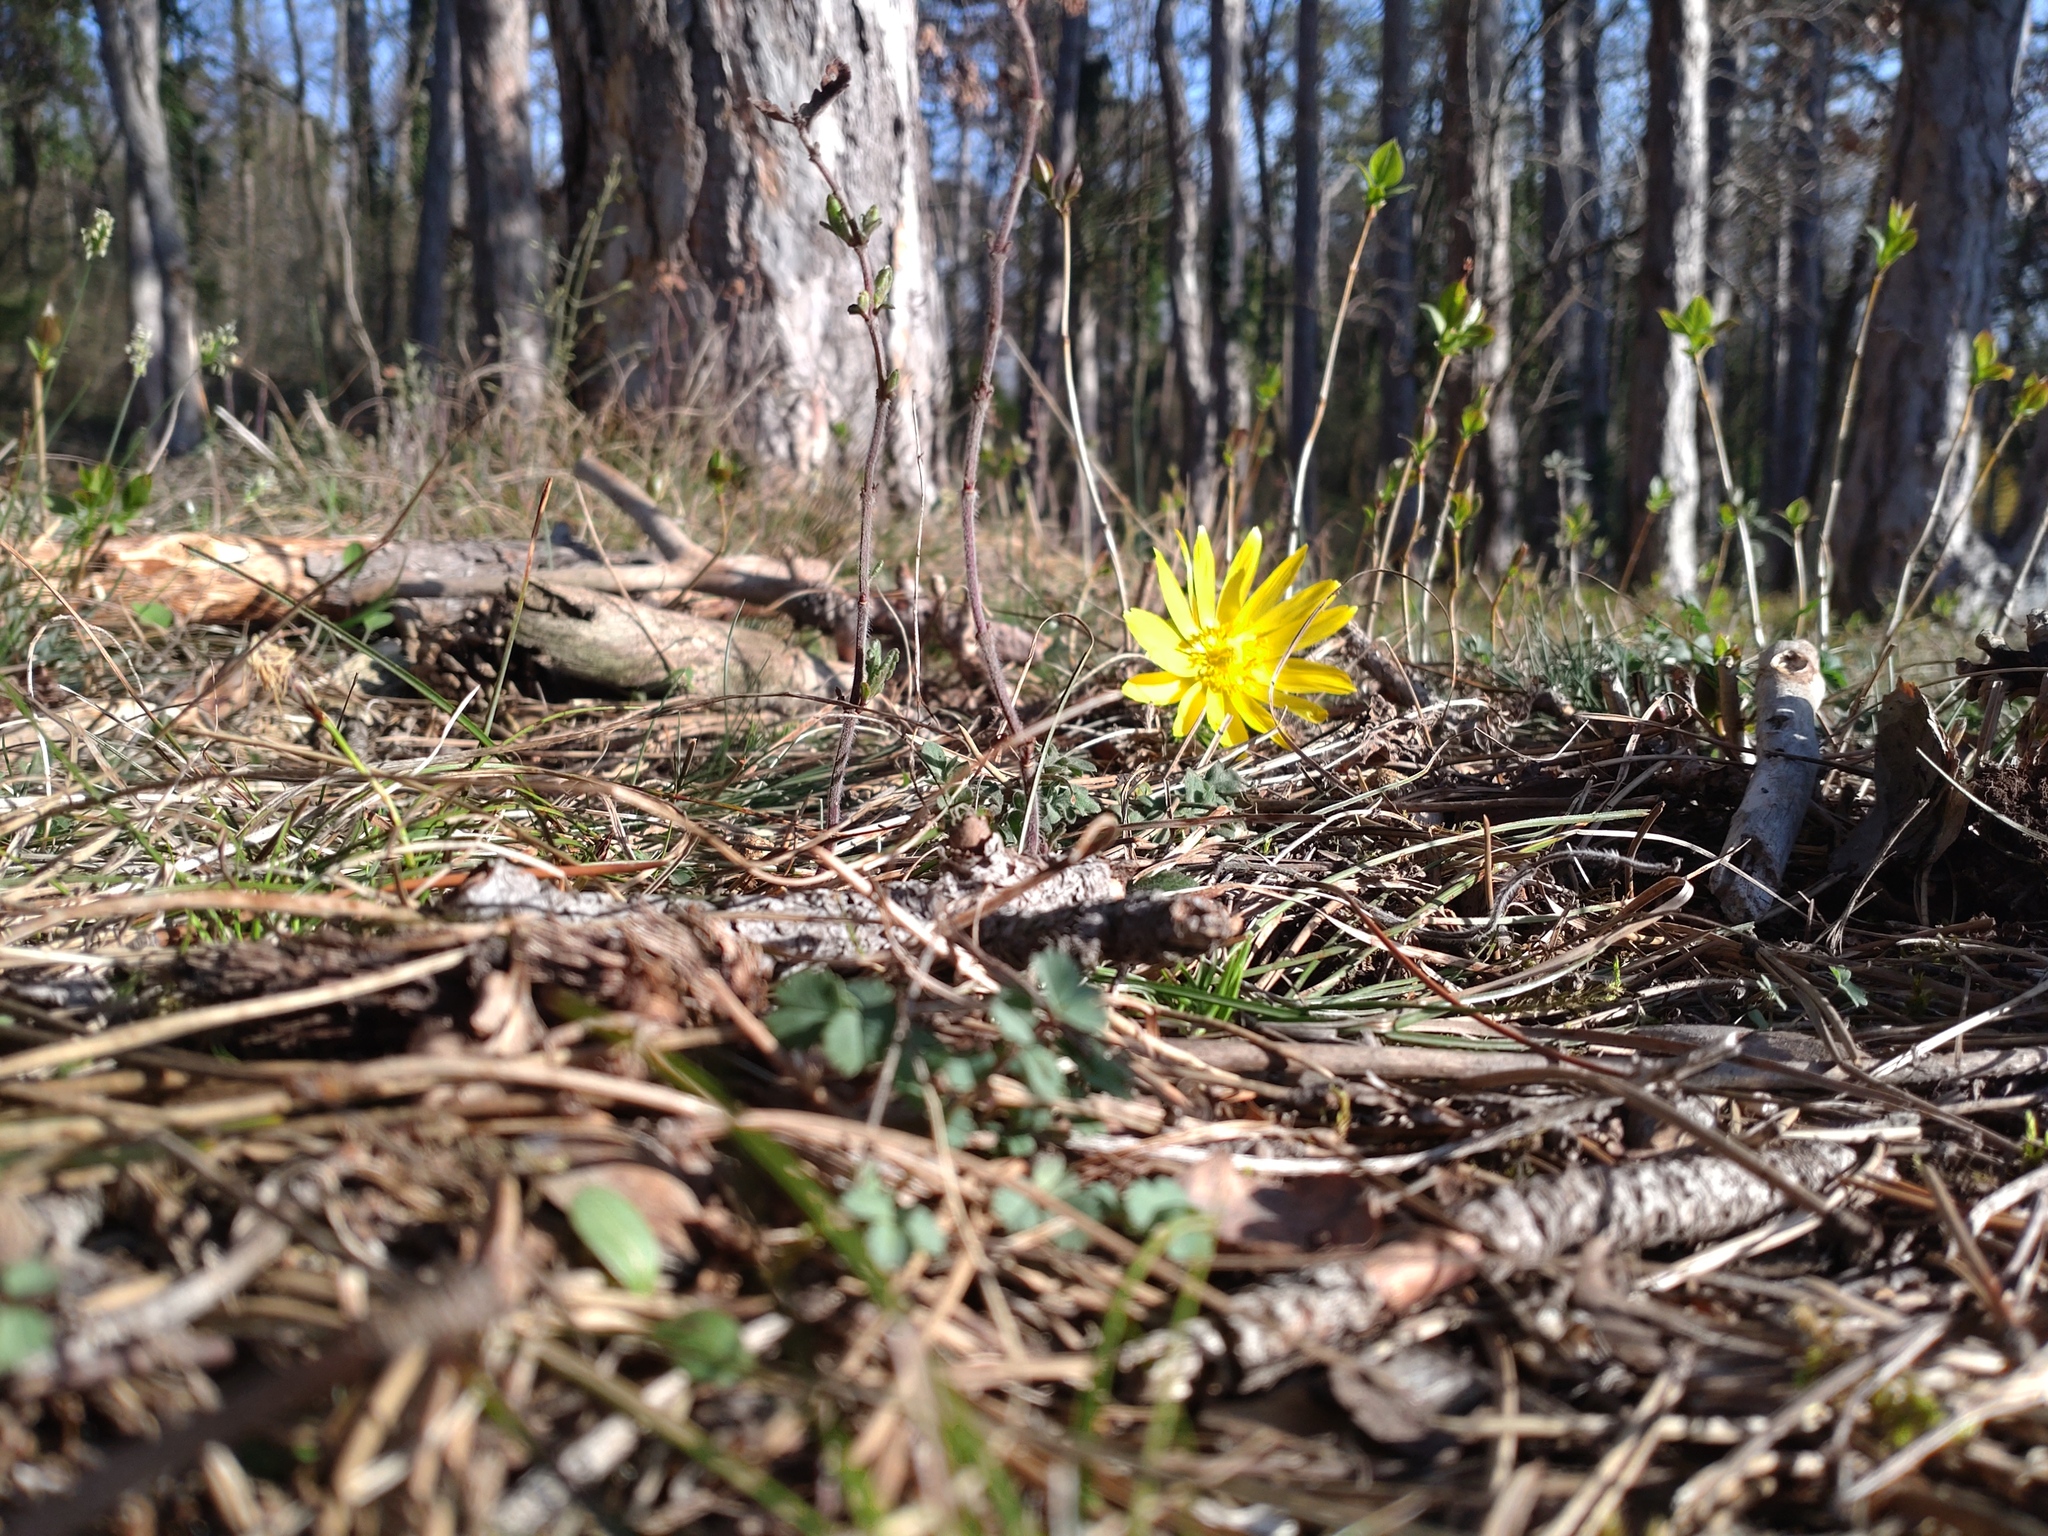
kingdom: Plantae
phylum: Tracheophyta
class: Magnoliopsida
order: Ranunculales
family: Ranunculaceae
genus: Adonis
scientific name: Adonis vernalis
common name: Yellow pheasants-eye
